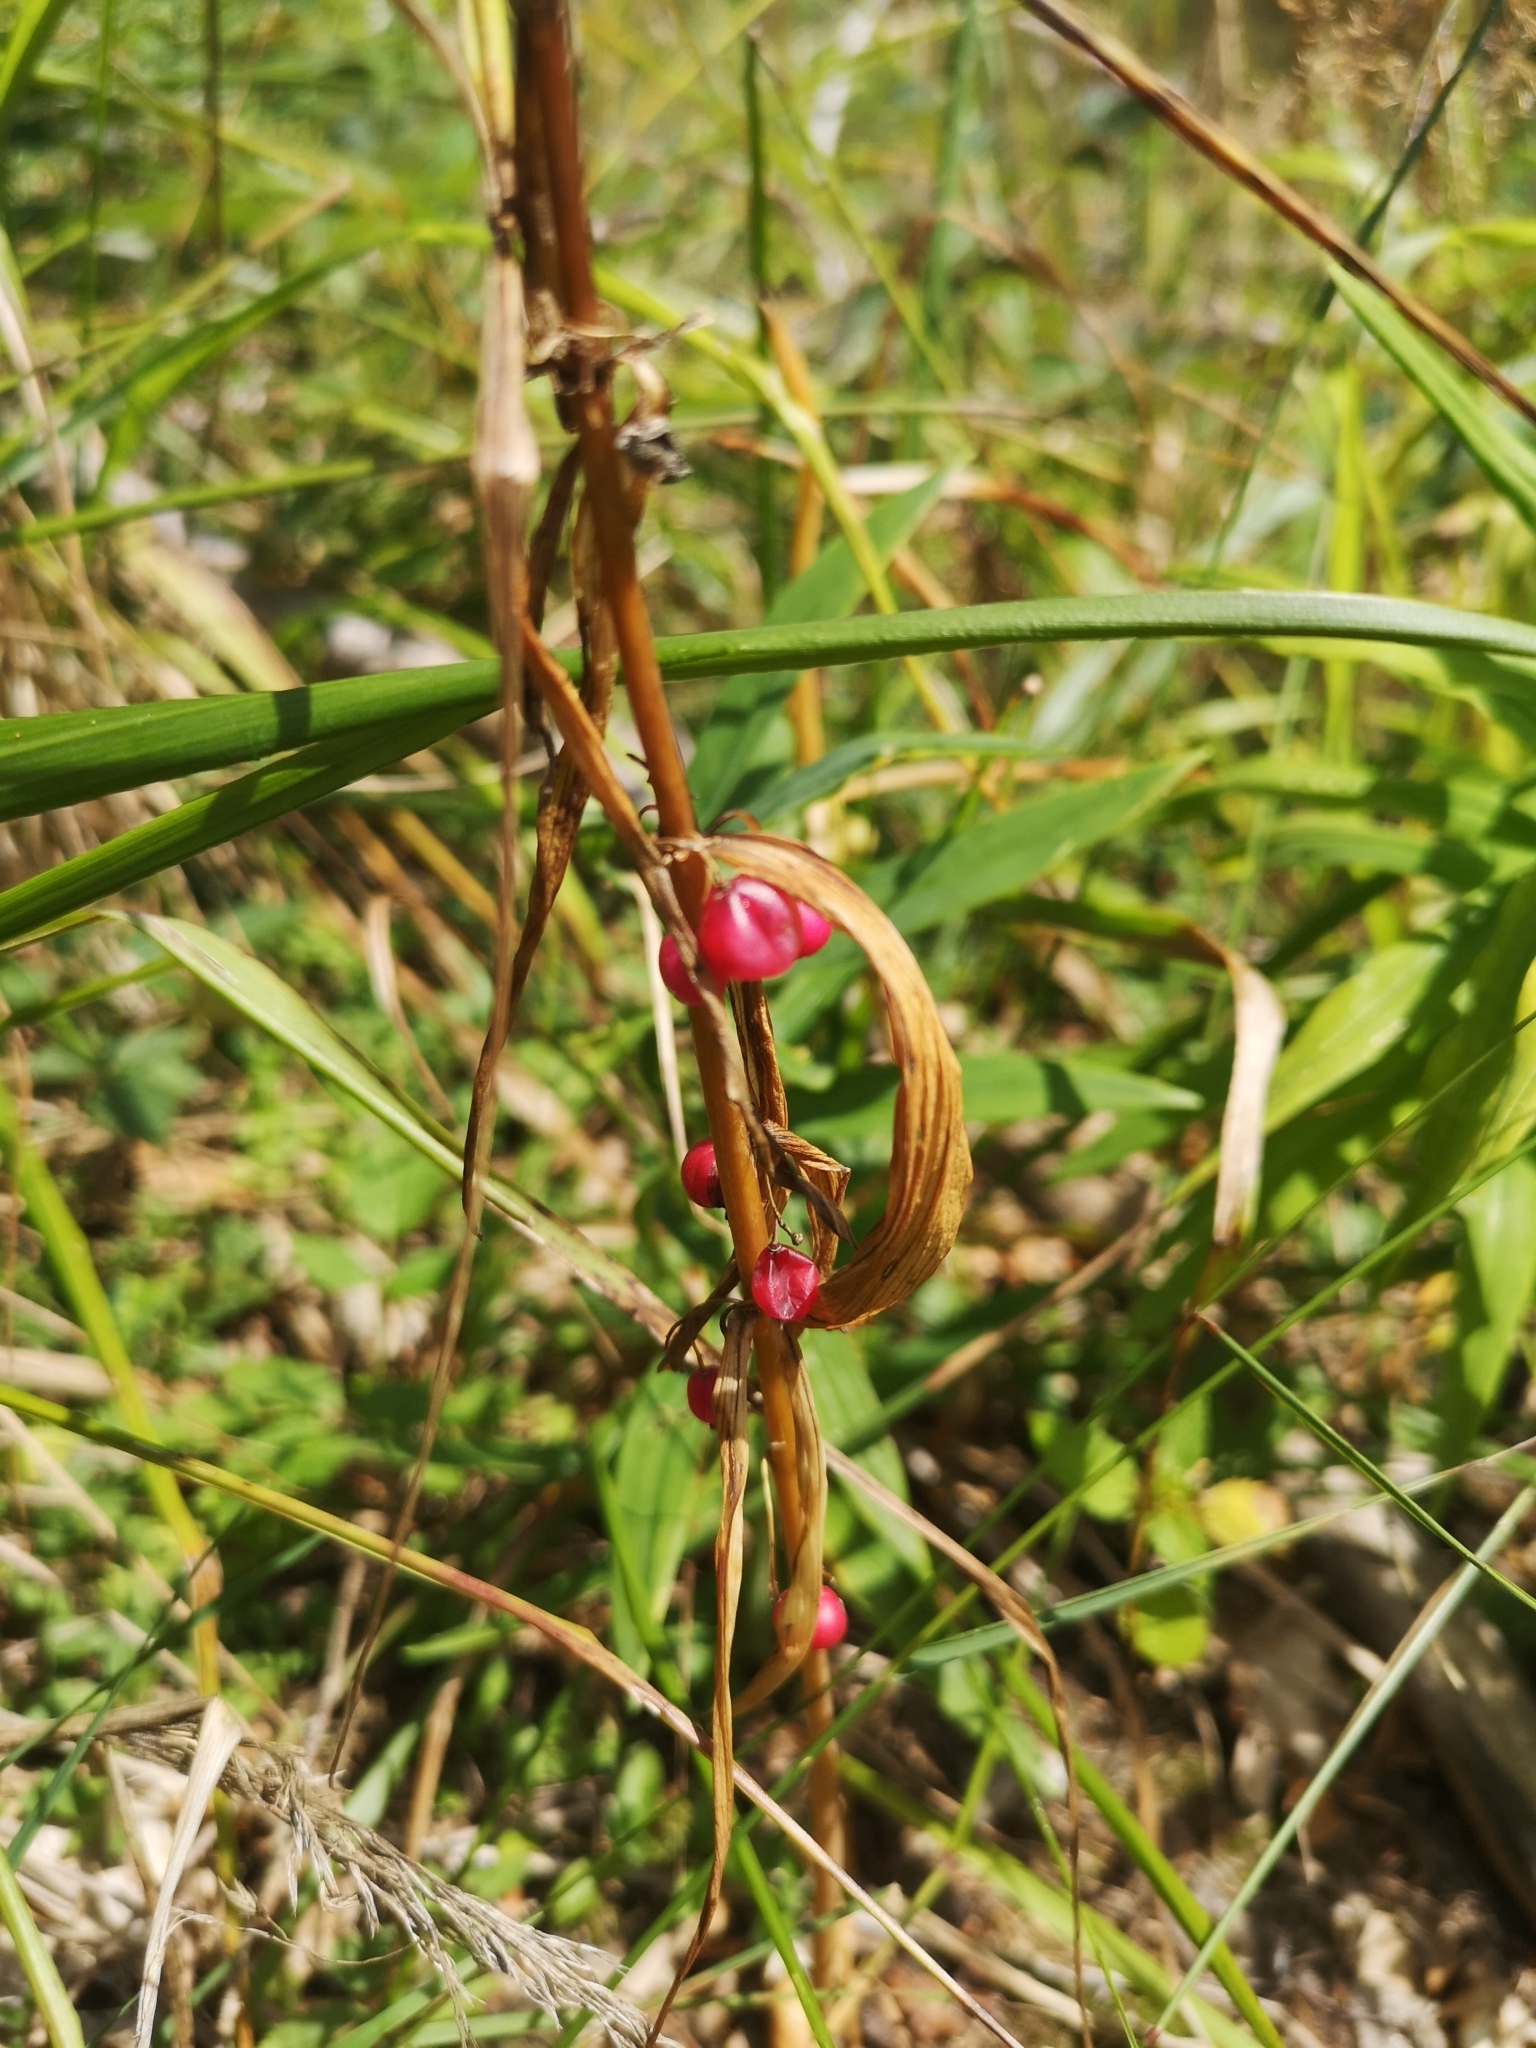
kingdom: Plantae
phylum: Tracheophyta
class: Liliopsida
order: Asparagales
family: Asparagaceae
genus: Polygonatum
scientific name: Polygonatum verticillatum
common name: Whorled solomon's-seal
